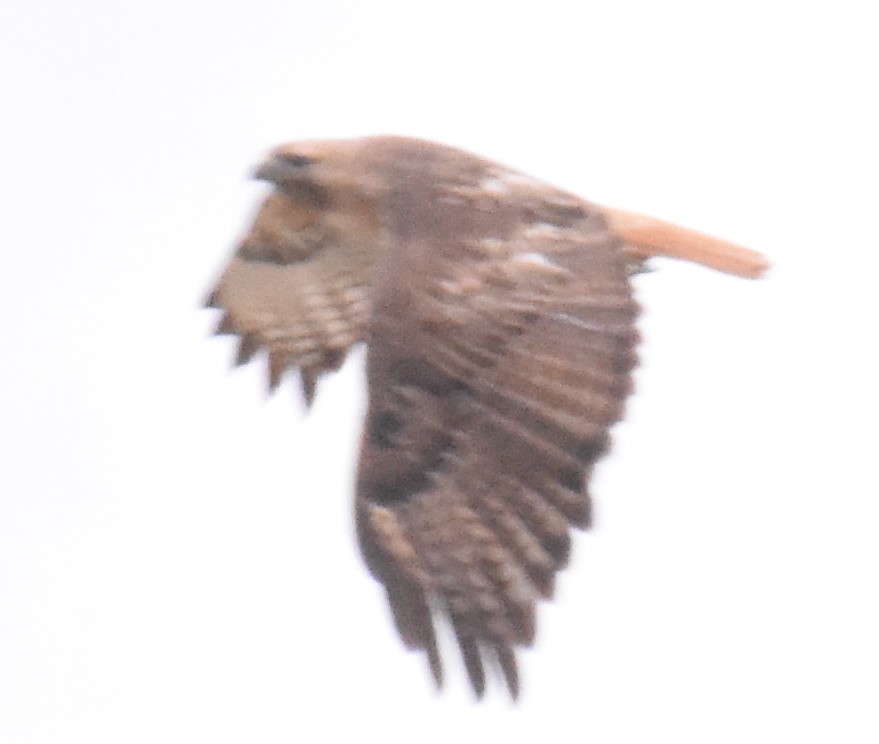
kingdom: Animalia
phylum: Chordata
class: Aves
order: Accipitriformes
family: Accipitridae
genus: Buteo
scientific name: Buteo jamaicensis
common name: Red-tailed hawk
